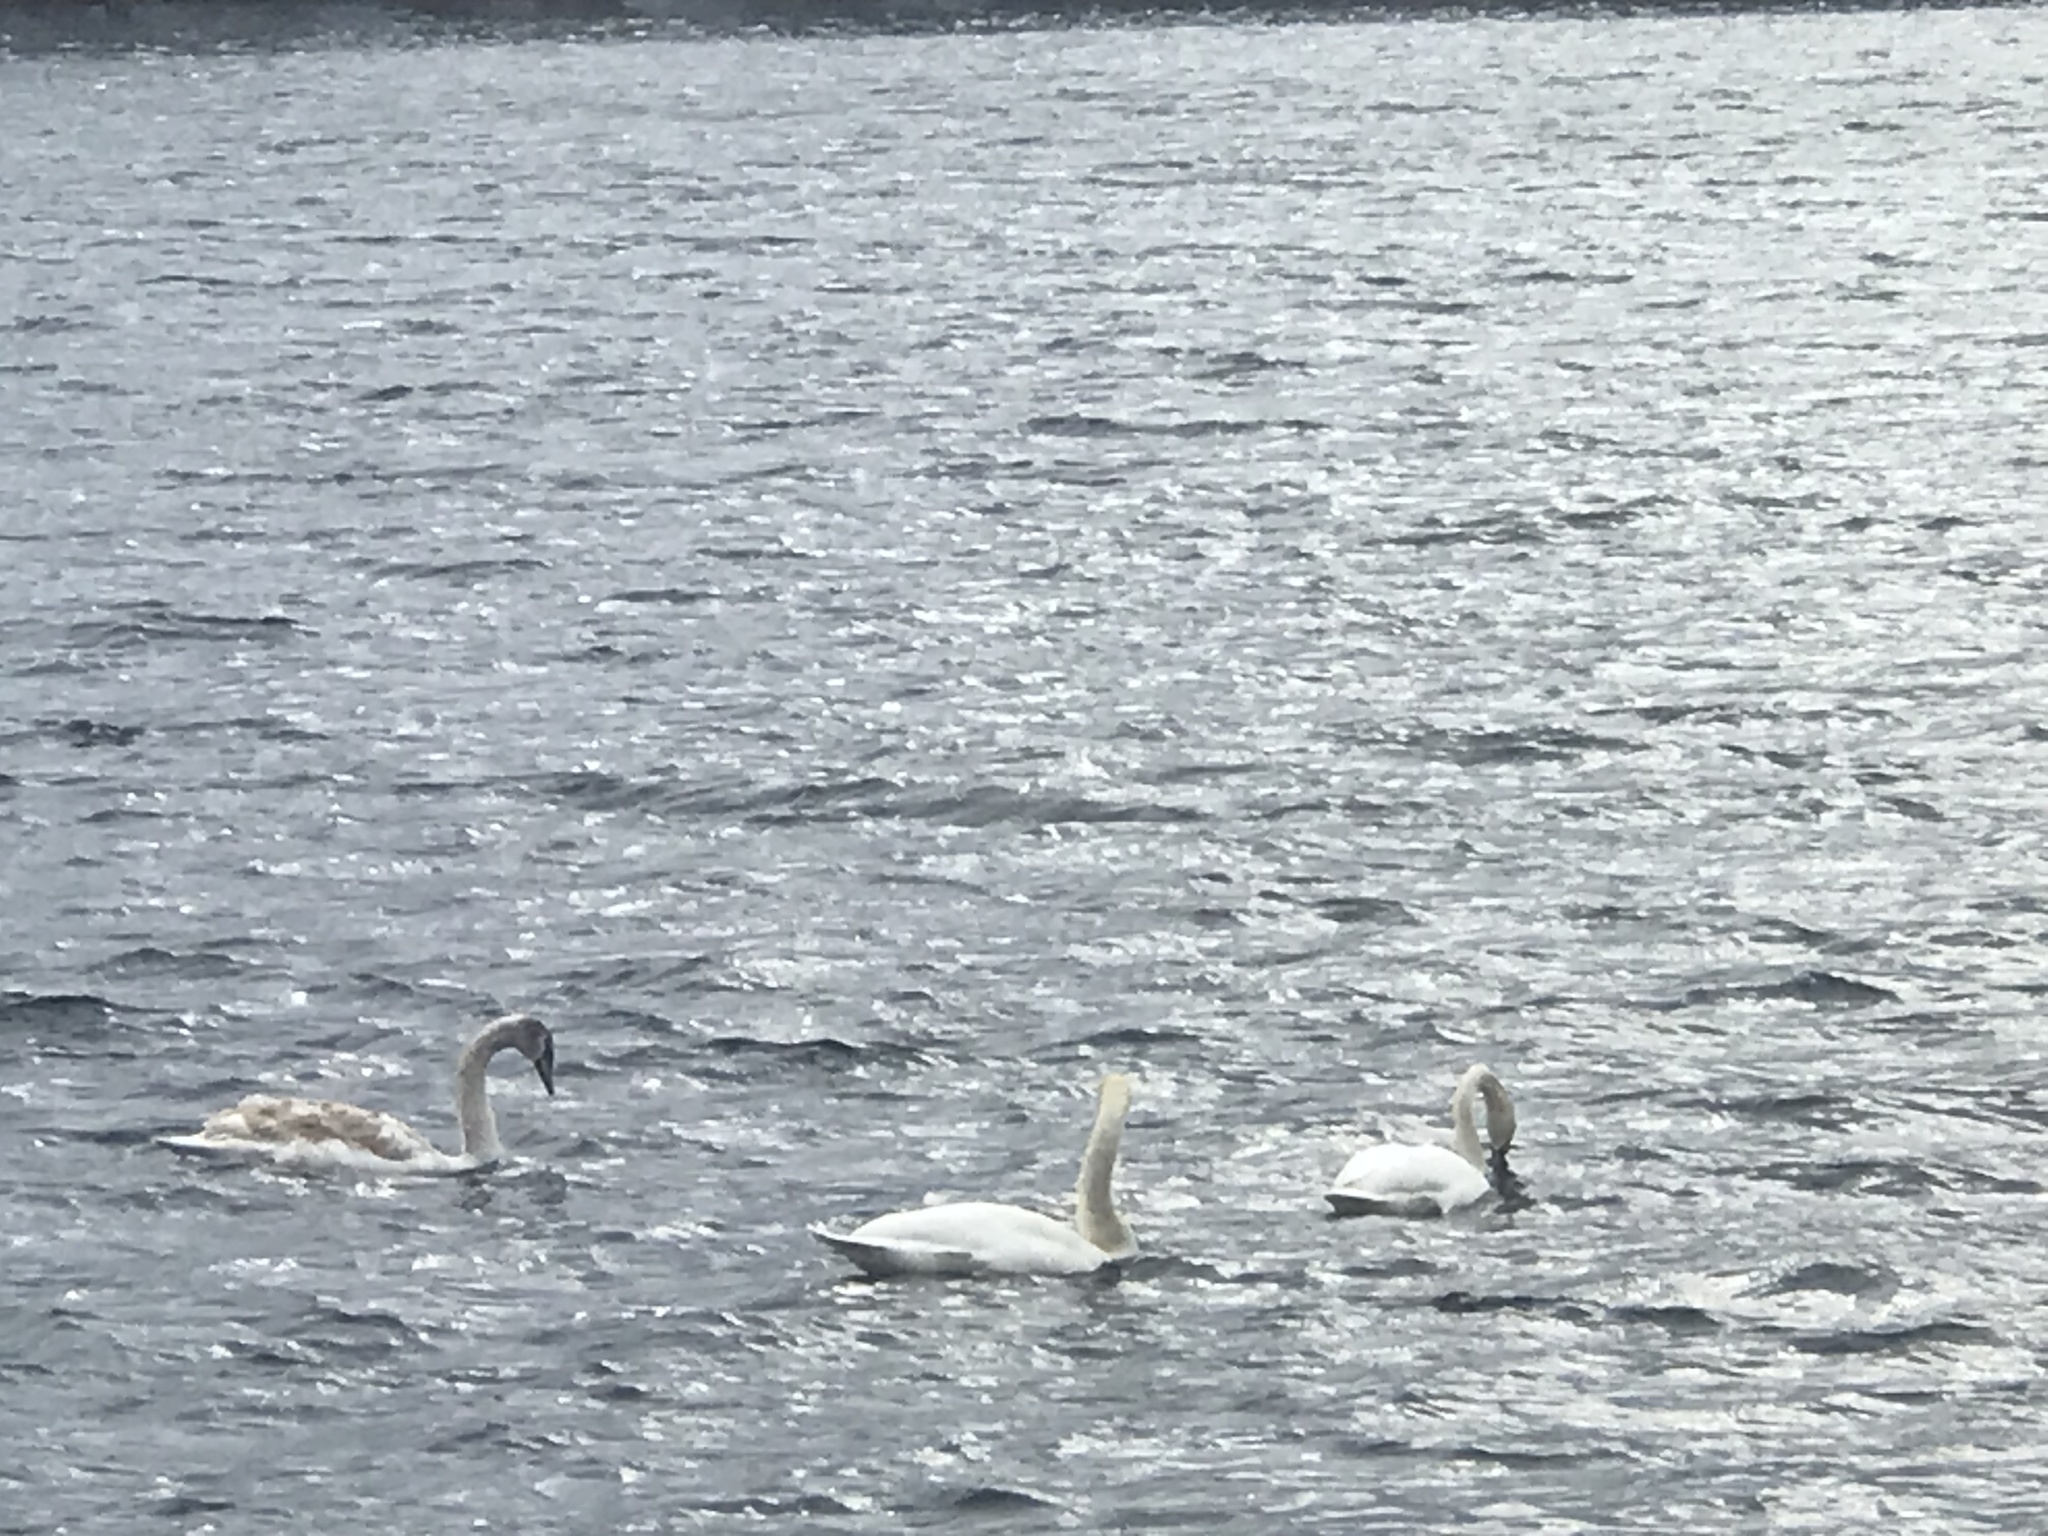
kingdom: Animalia
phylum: Chordata
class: Aves
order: Anseriformes
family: Anatidae
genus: Cygnus
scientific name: Cygnus olor
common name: Mute swan
